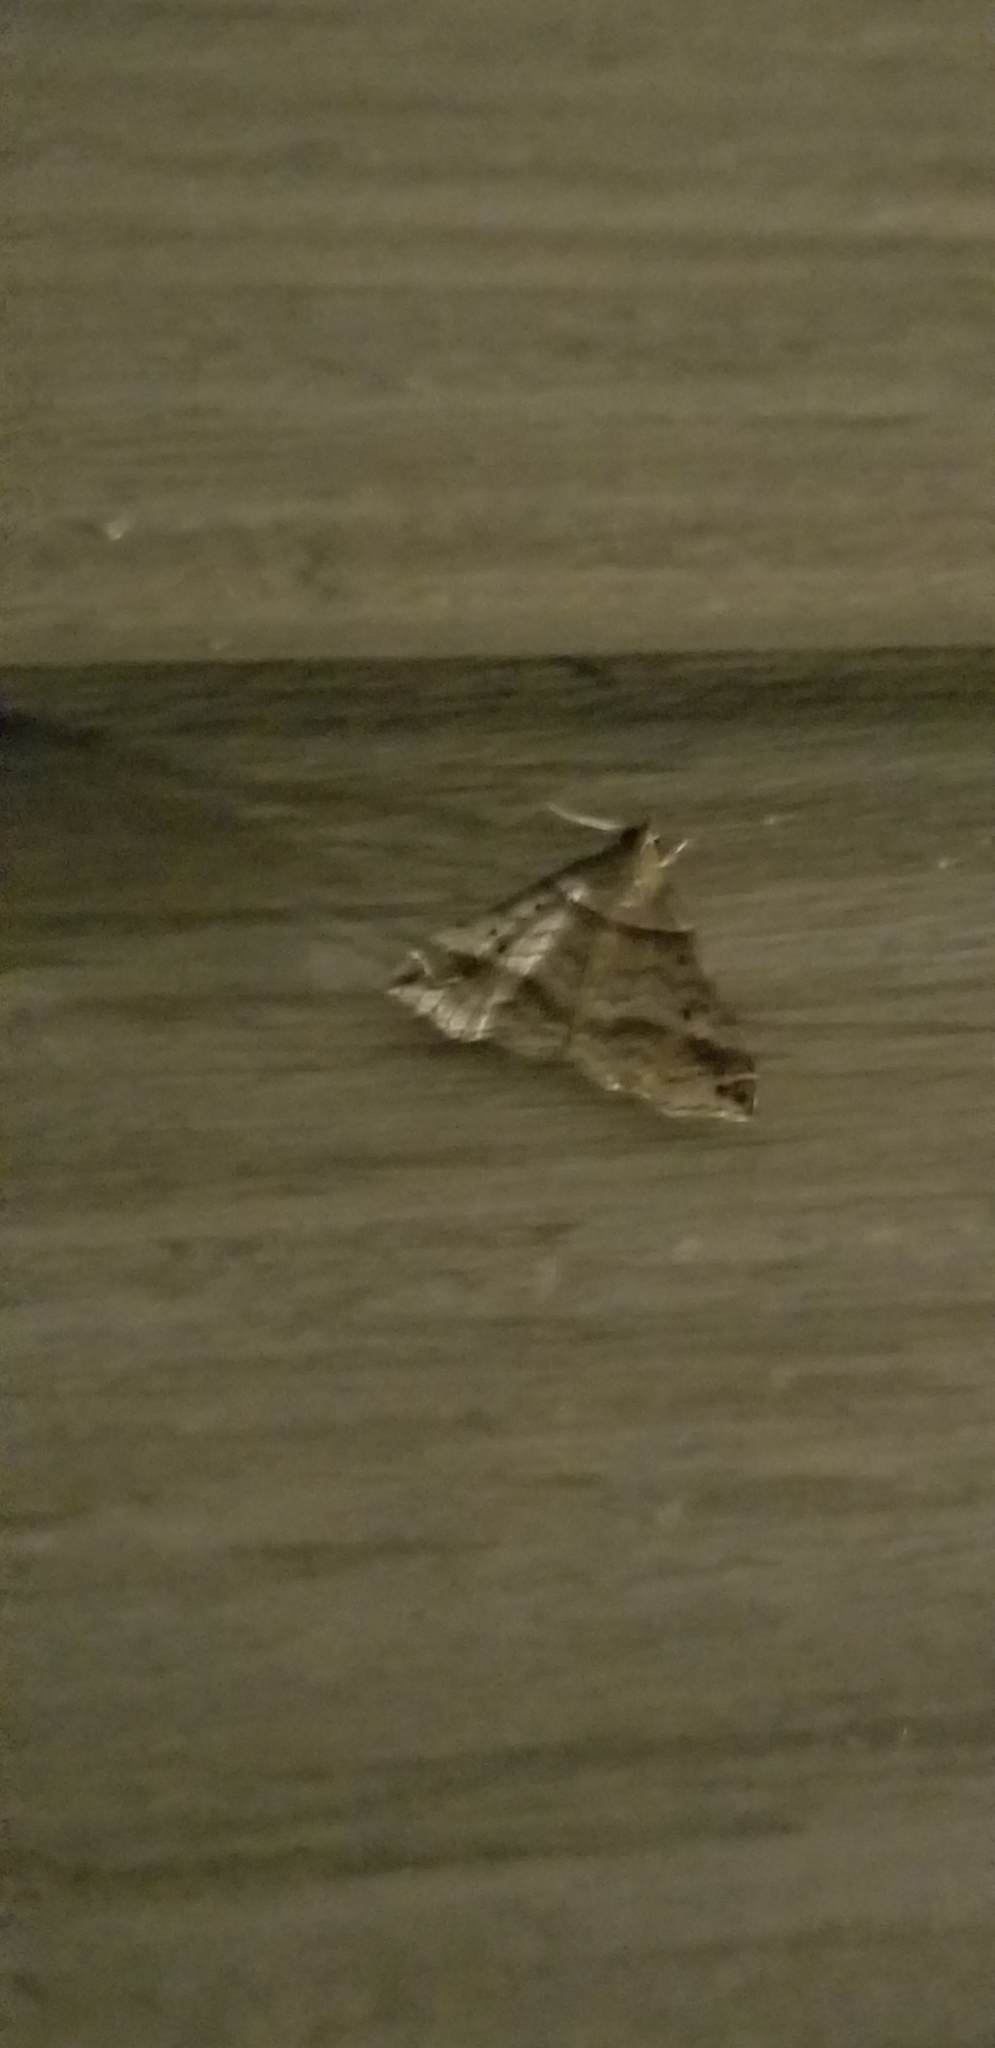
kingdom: Animalia
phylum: Arthropoda
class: Insecta
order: Lepidoptera
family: Erebidae
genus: Phaeolita
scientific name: Phaeolita pyramusalis
